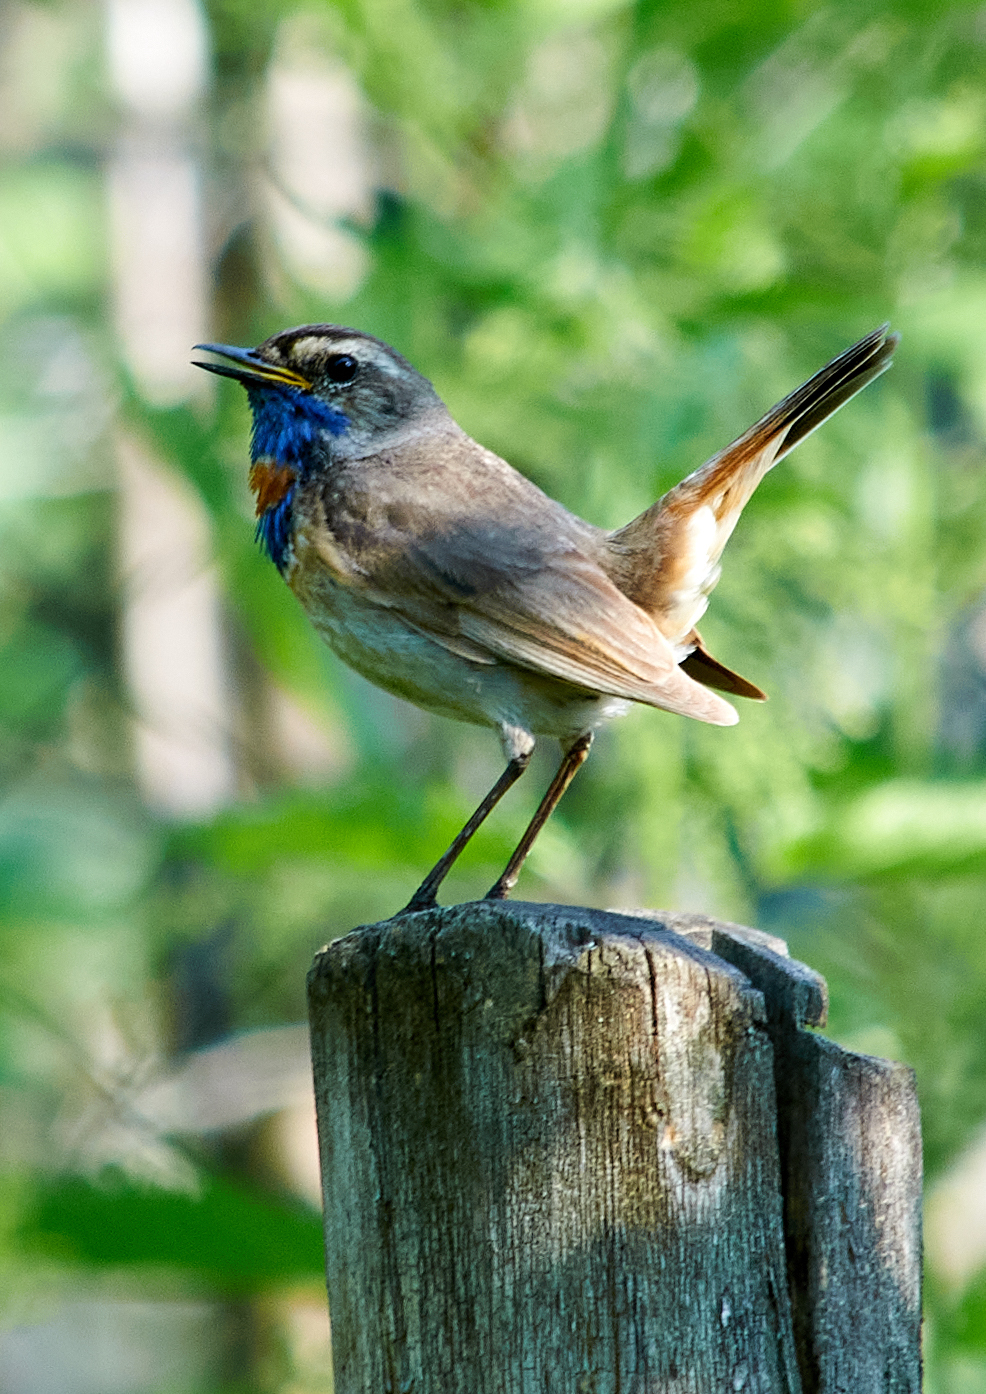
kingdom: Animalia
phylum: Chordata
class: Aves
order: Passeriformes
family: Muscicapidae
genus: Luscinia
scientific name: Luscinia svecica
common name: Bluethroat
